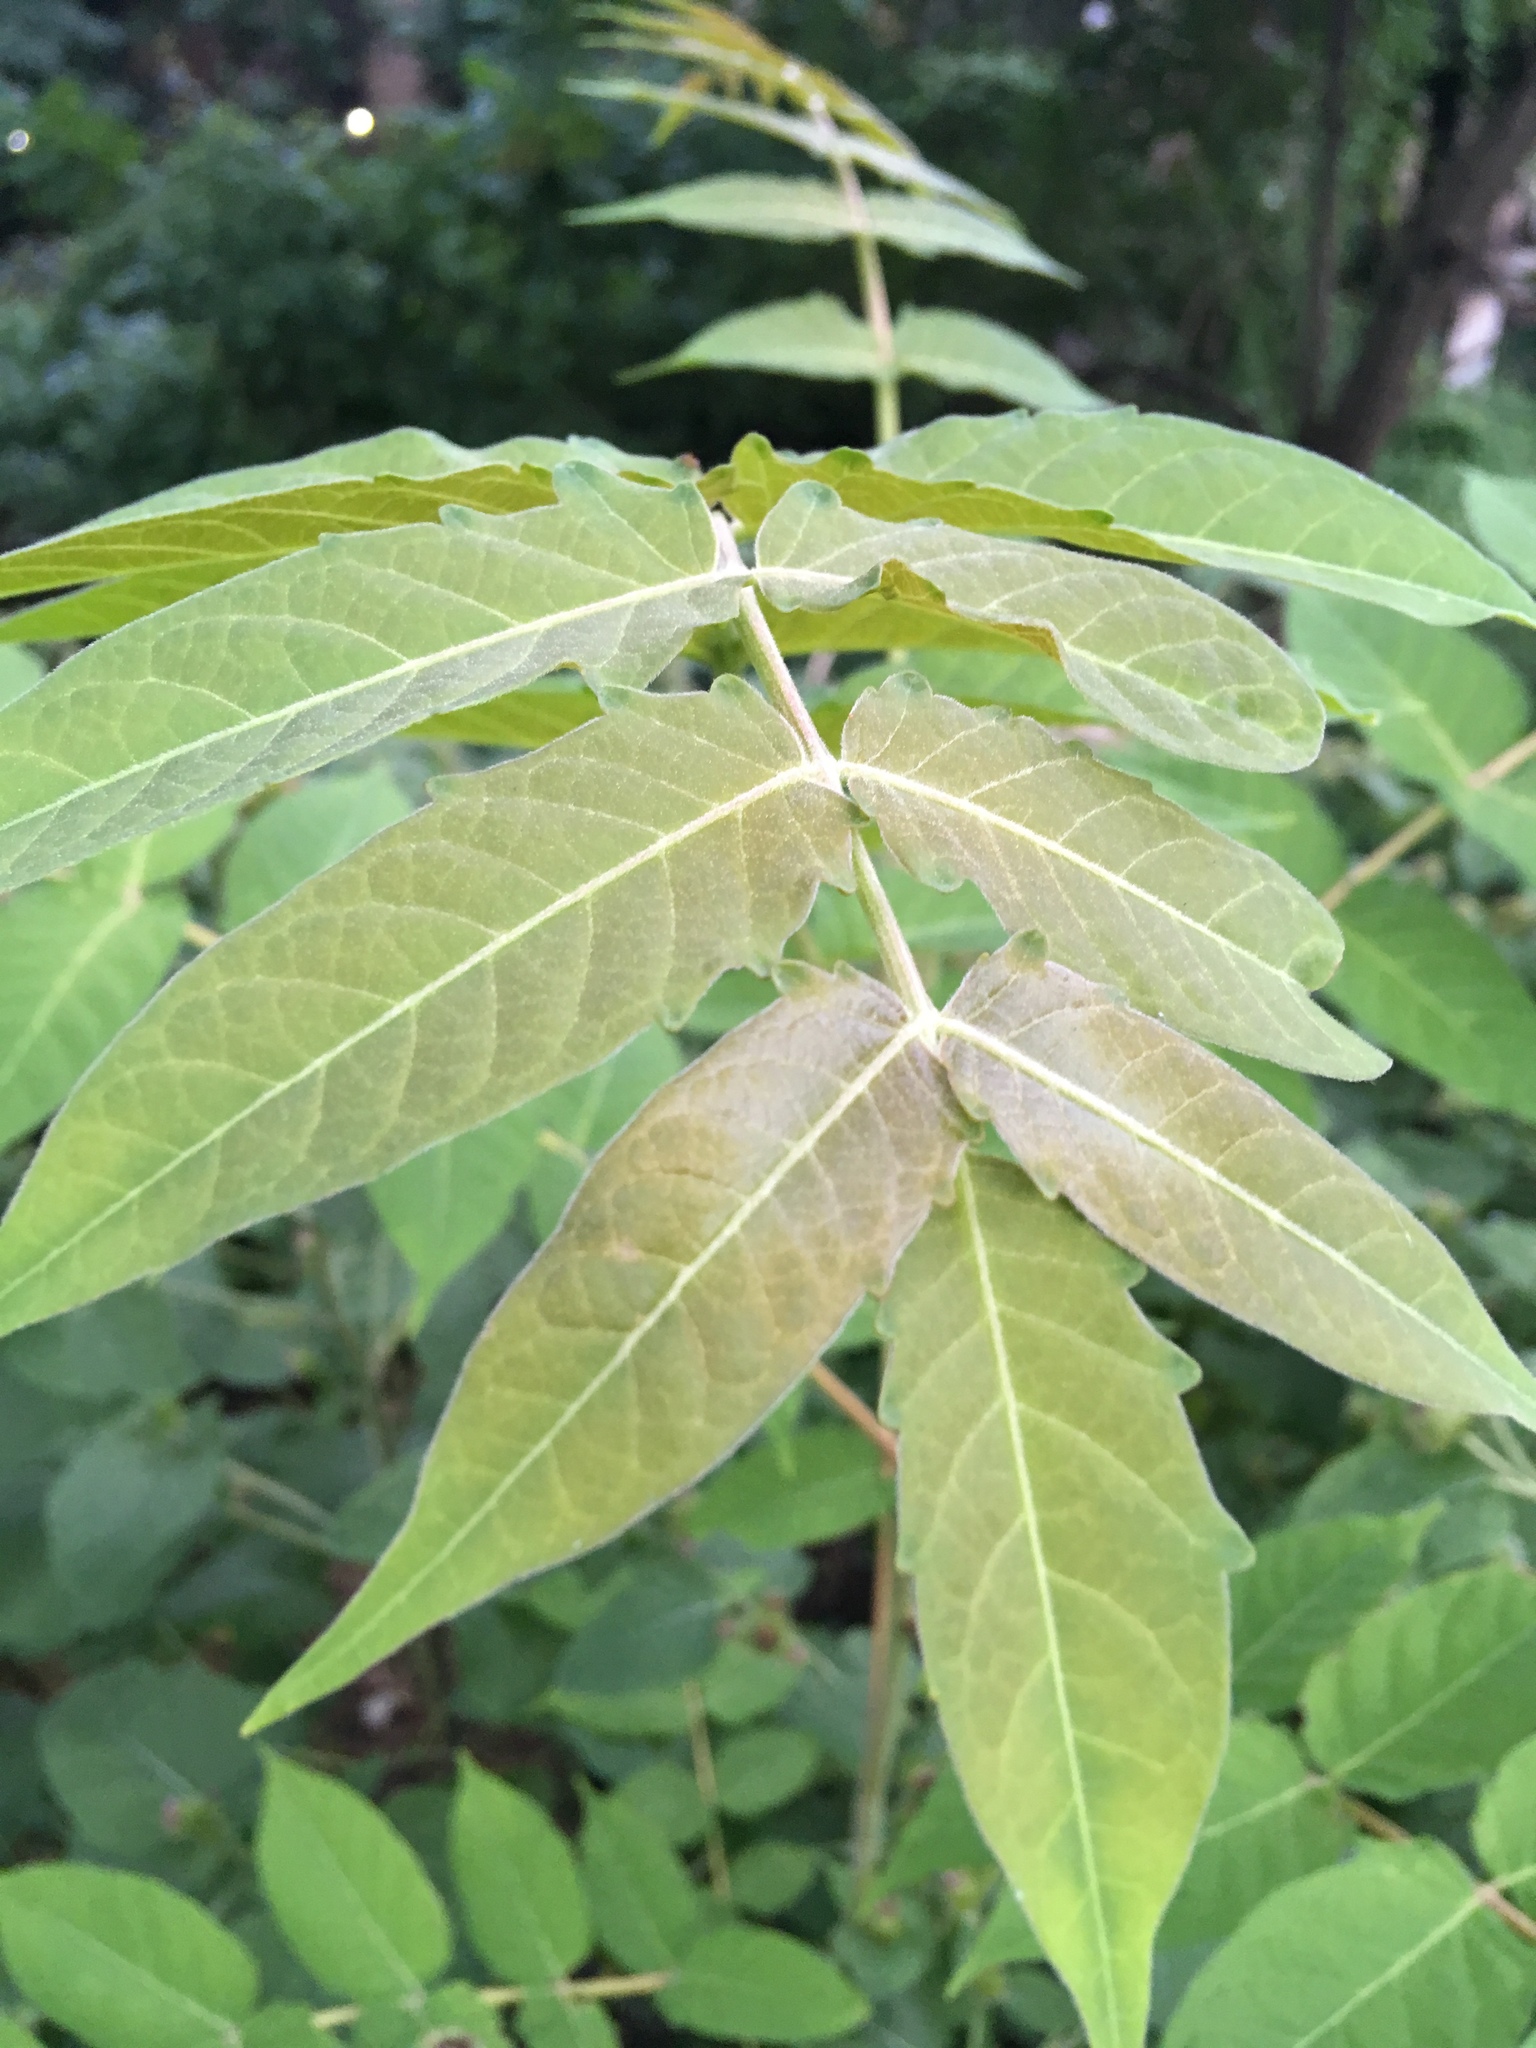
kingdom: Plantae
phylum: Tracheophyta
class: Magnoliopsida
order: Sapindales
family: Simaroubaceae
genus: Ailanthus
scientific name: Ailanthus altissima
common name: Tree-of-heaven
